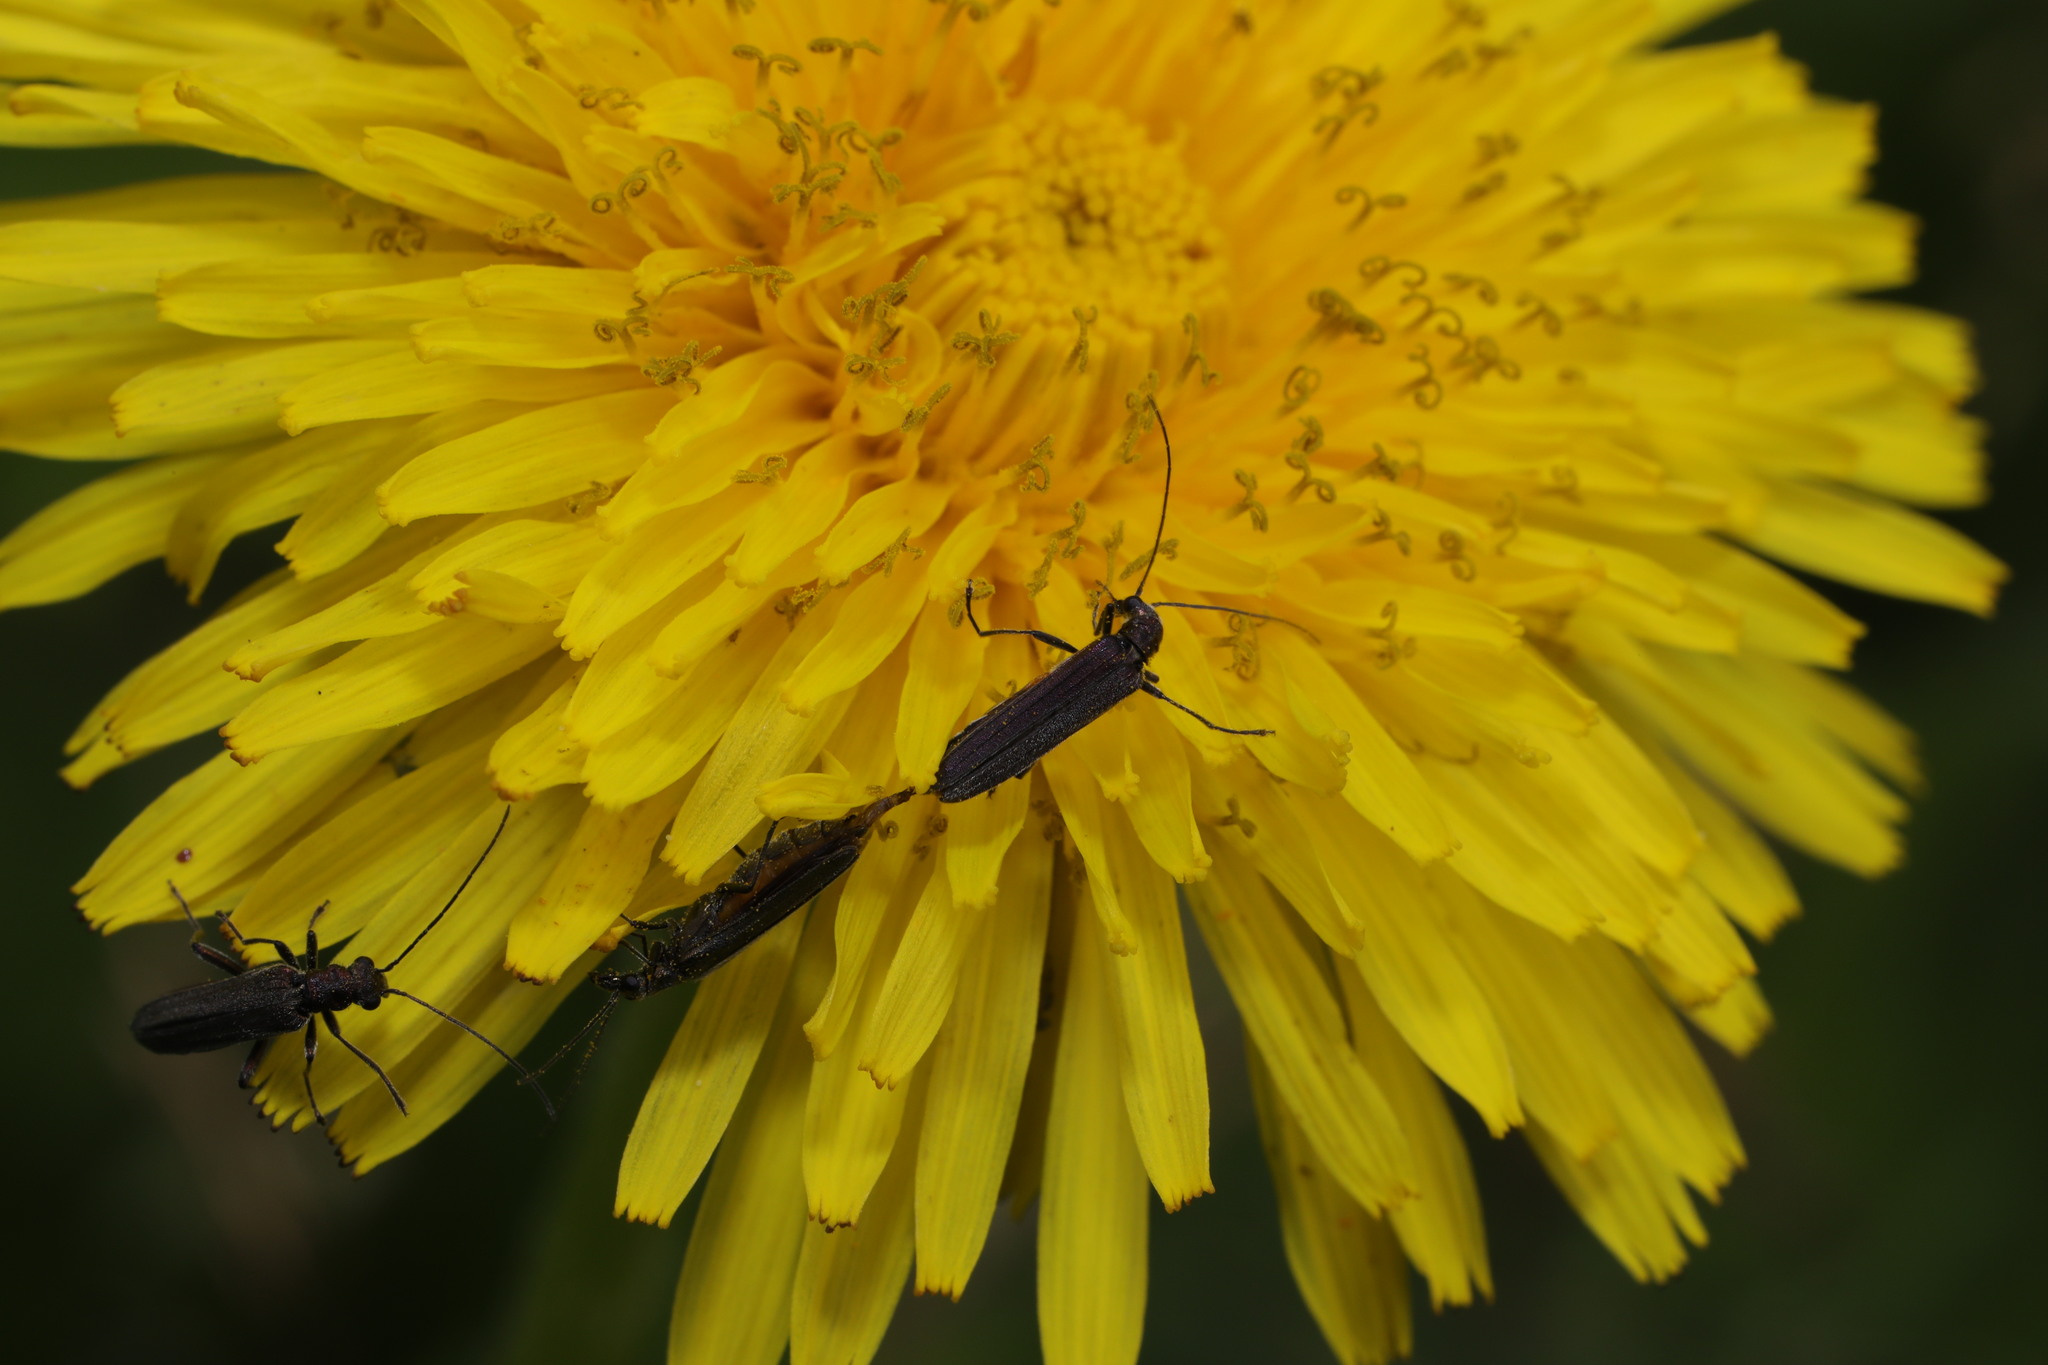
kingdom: Animalia
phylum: Arthropoda
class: Insecta
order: Coleoptera
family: Oedemeridae
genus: Oedemera
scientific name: Oedemera lurida
